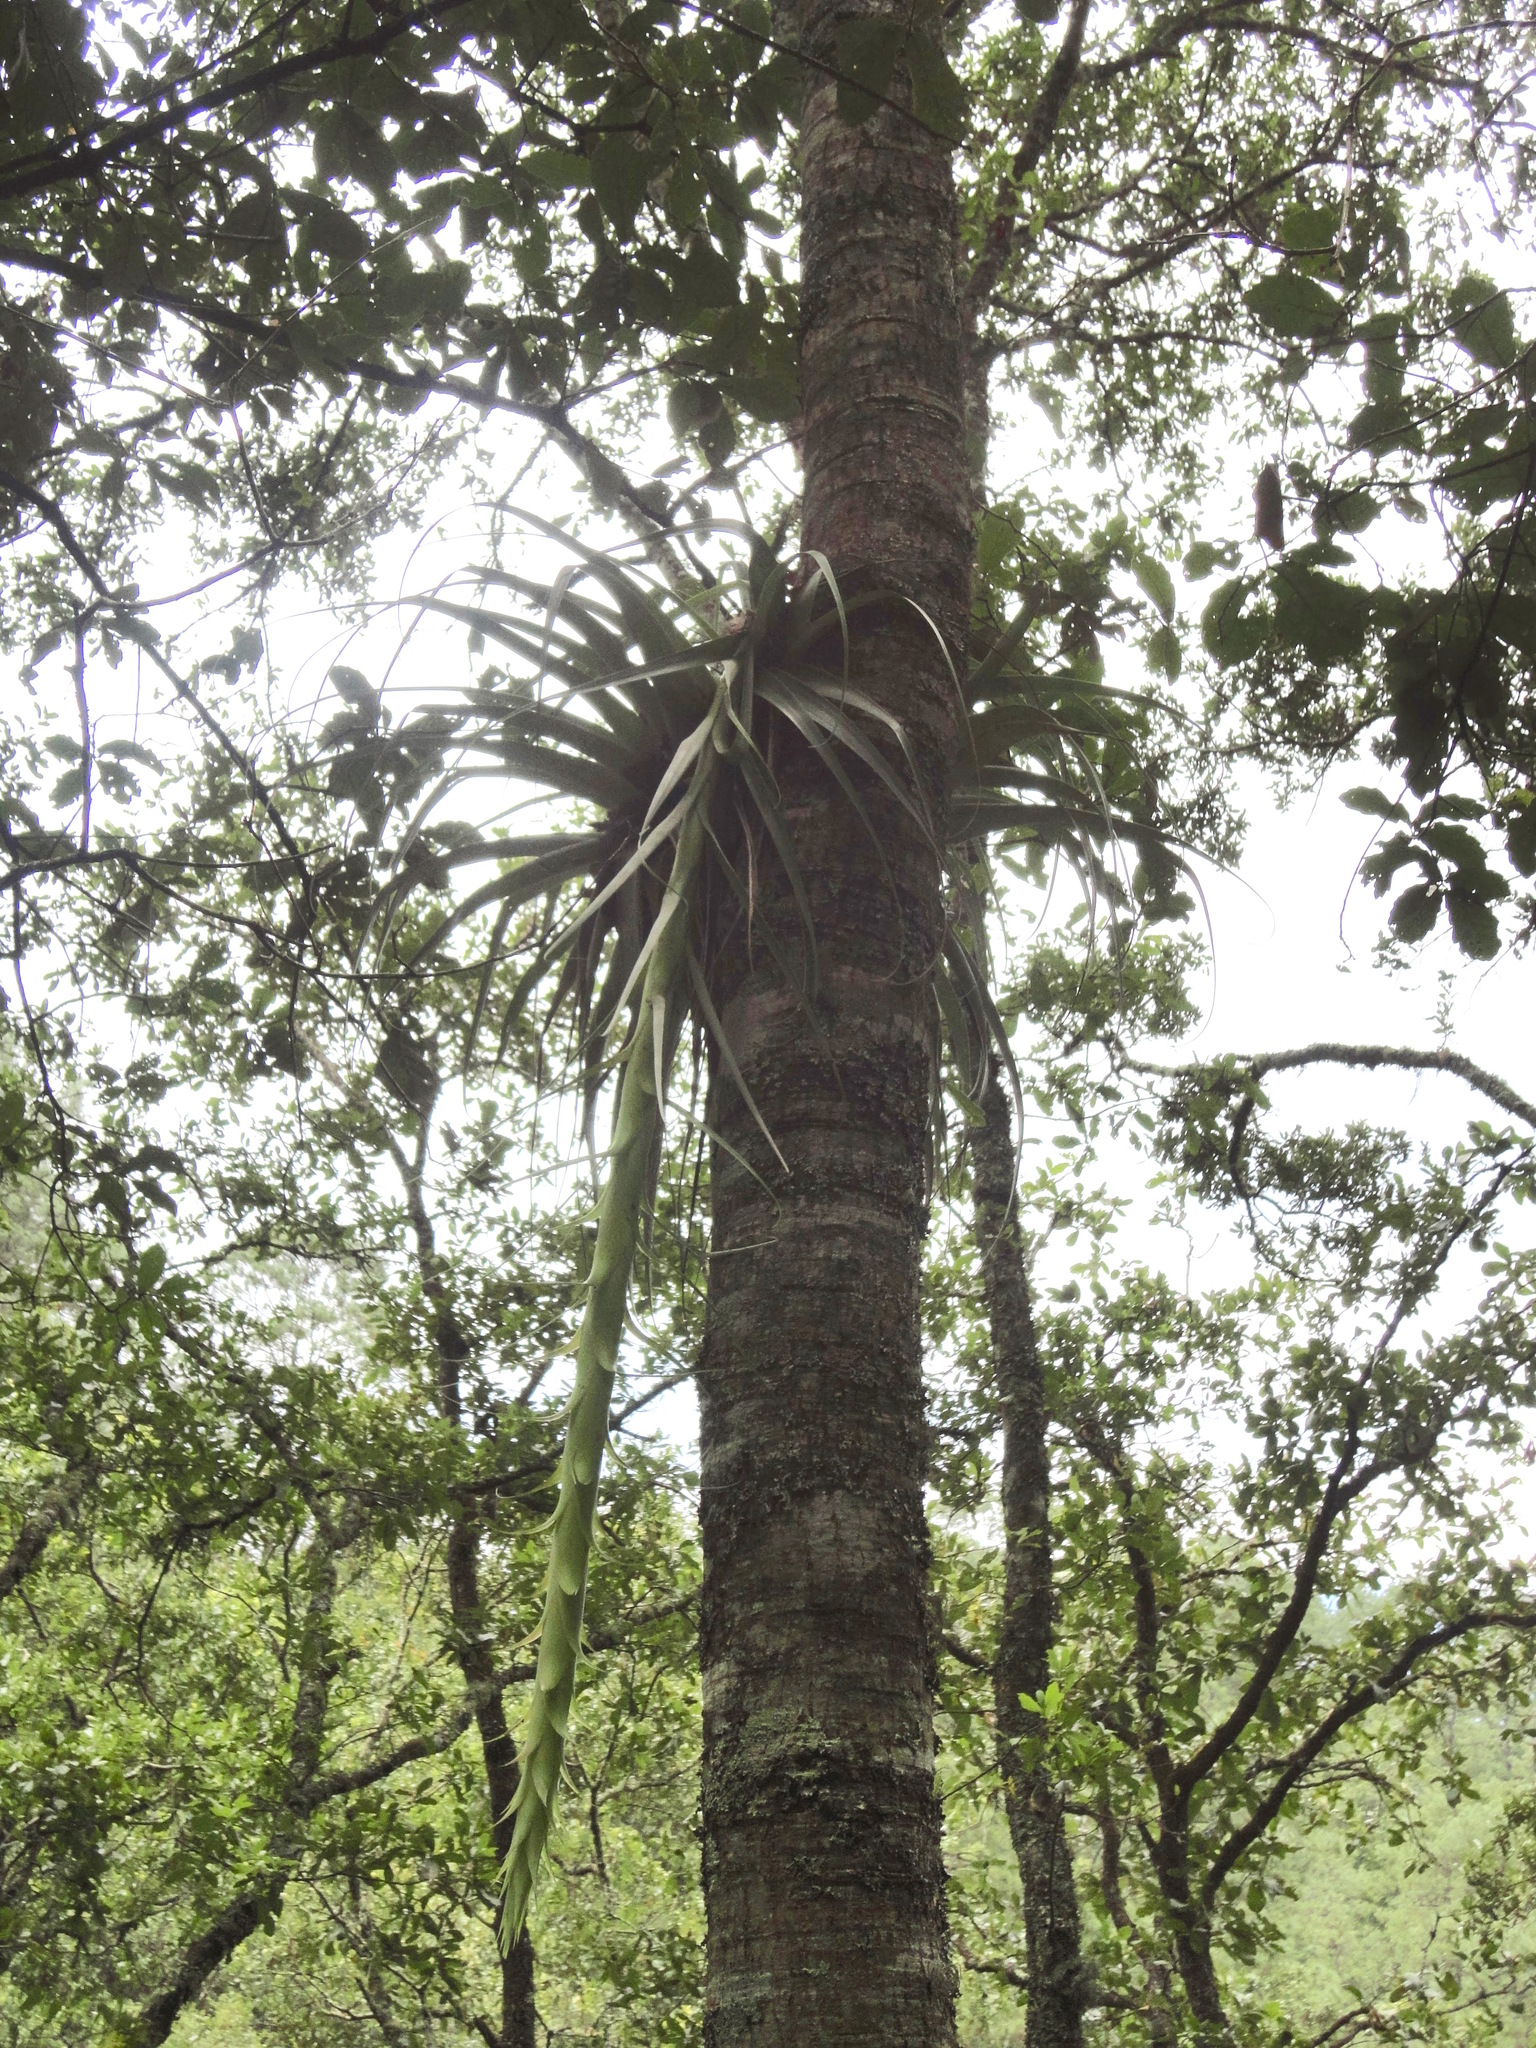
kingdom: Plantae
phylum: Tracheophyta
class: Liliopsida
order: Poales
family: Bromeliaceae
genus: Tillandsia
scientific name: Tillandsia prodigiosa
